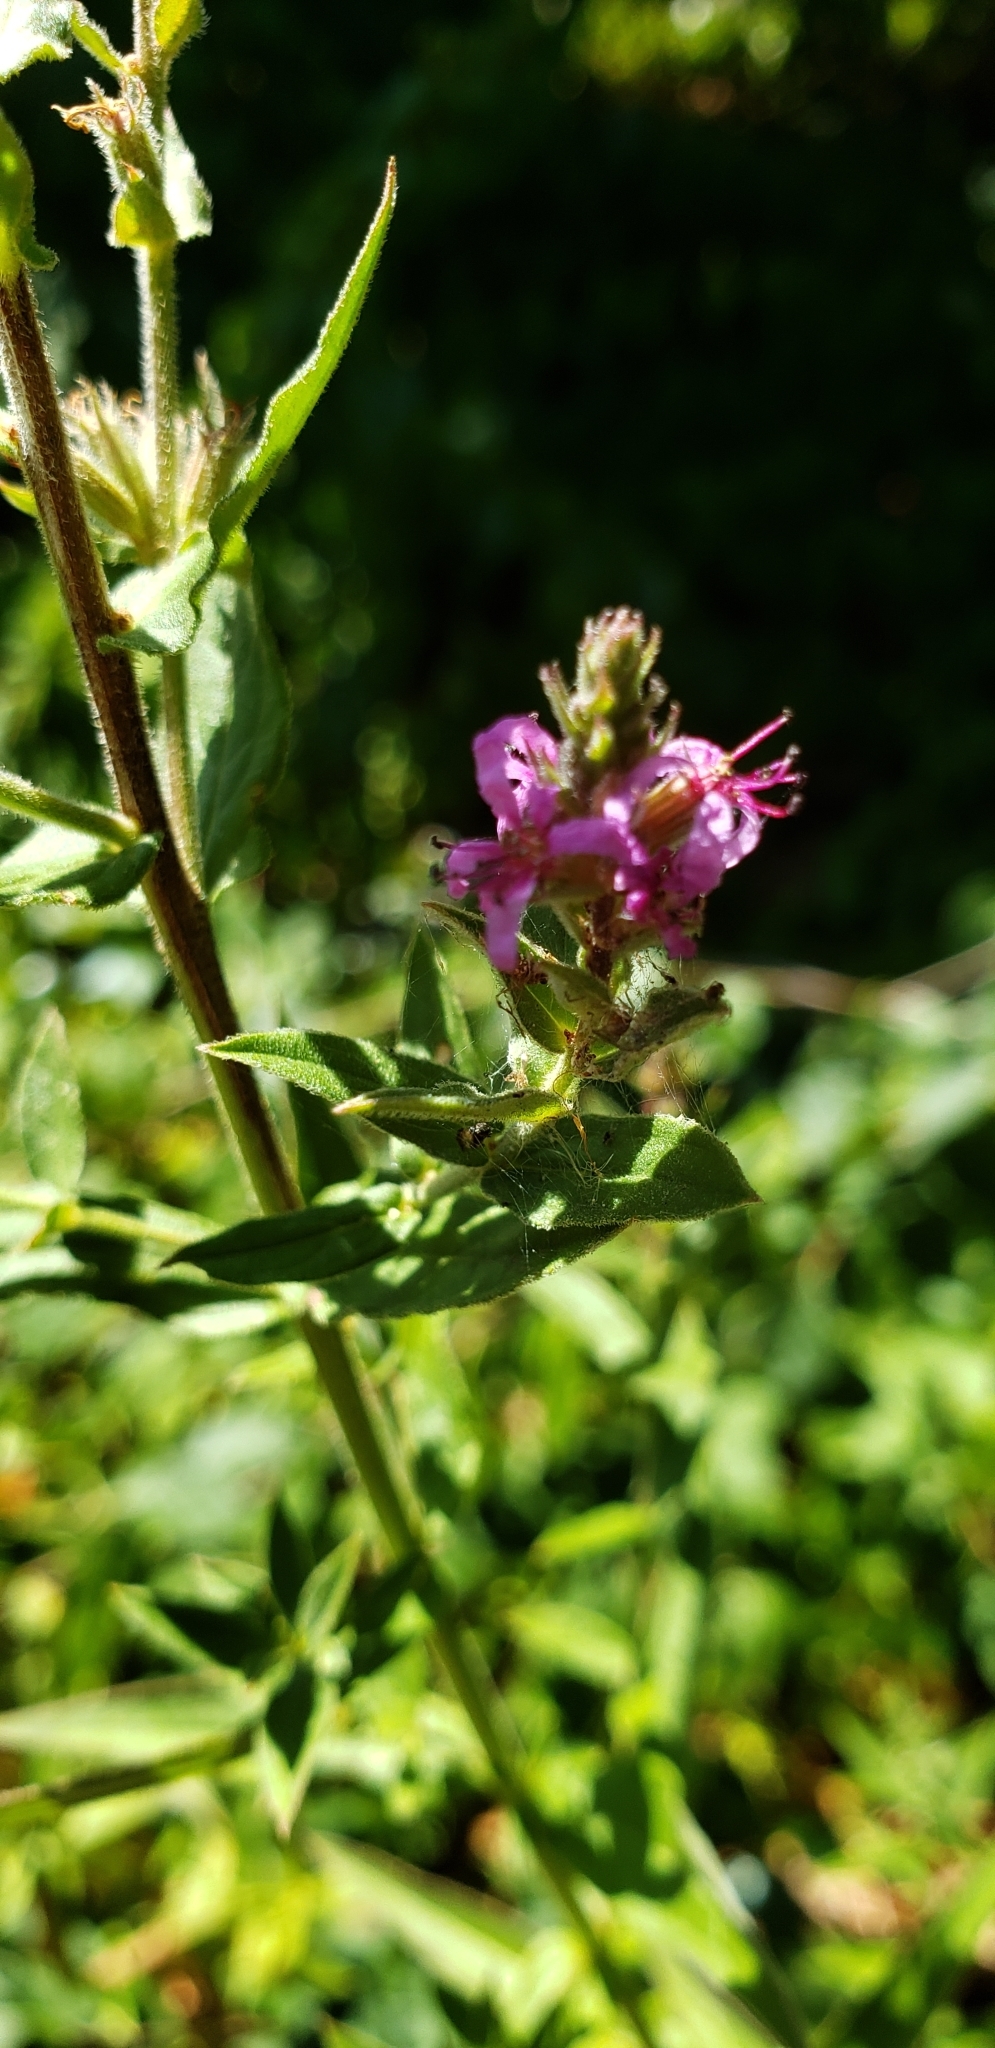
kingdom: Plantae
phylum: Tracheophyta
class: Magnoliopsida
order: Myrtales
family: Lythraceae
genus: Lythrum
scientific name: Lythrum salicaria
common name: Purple loosestrife
